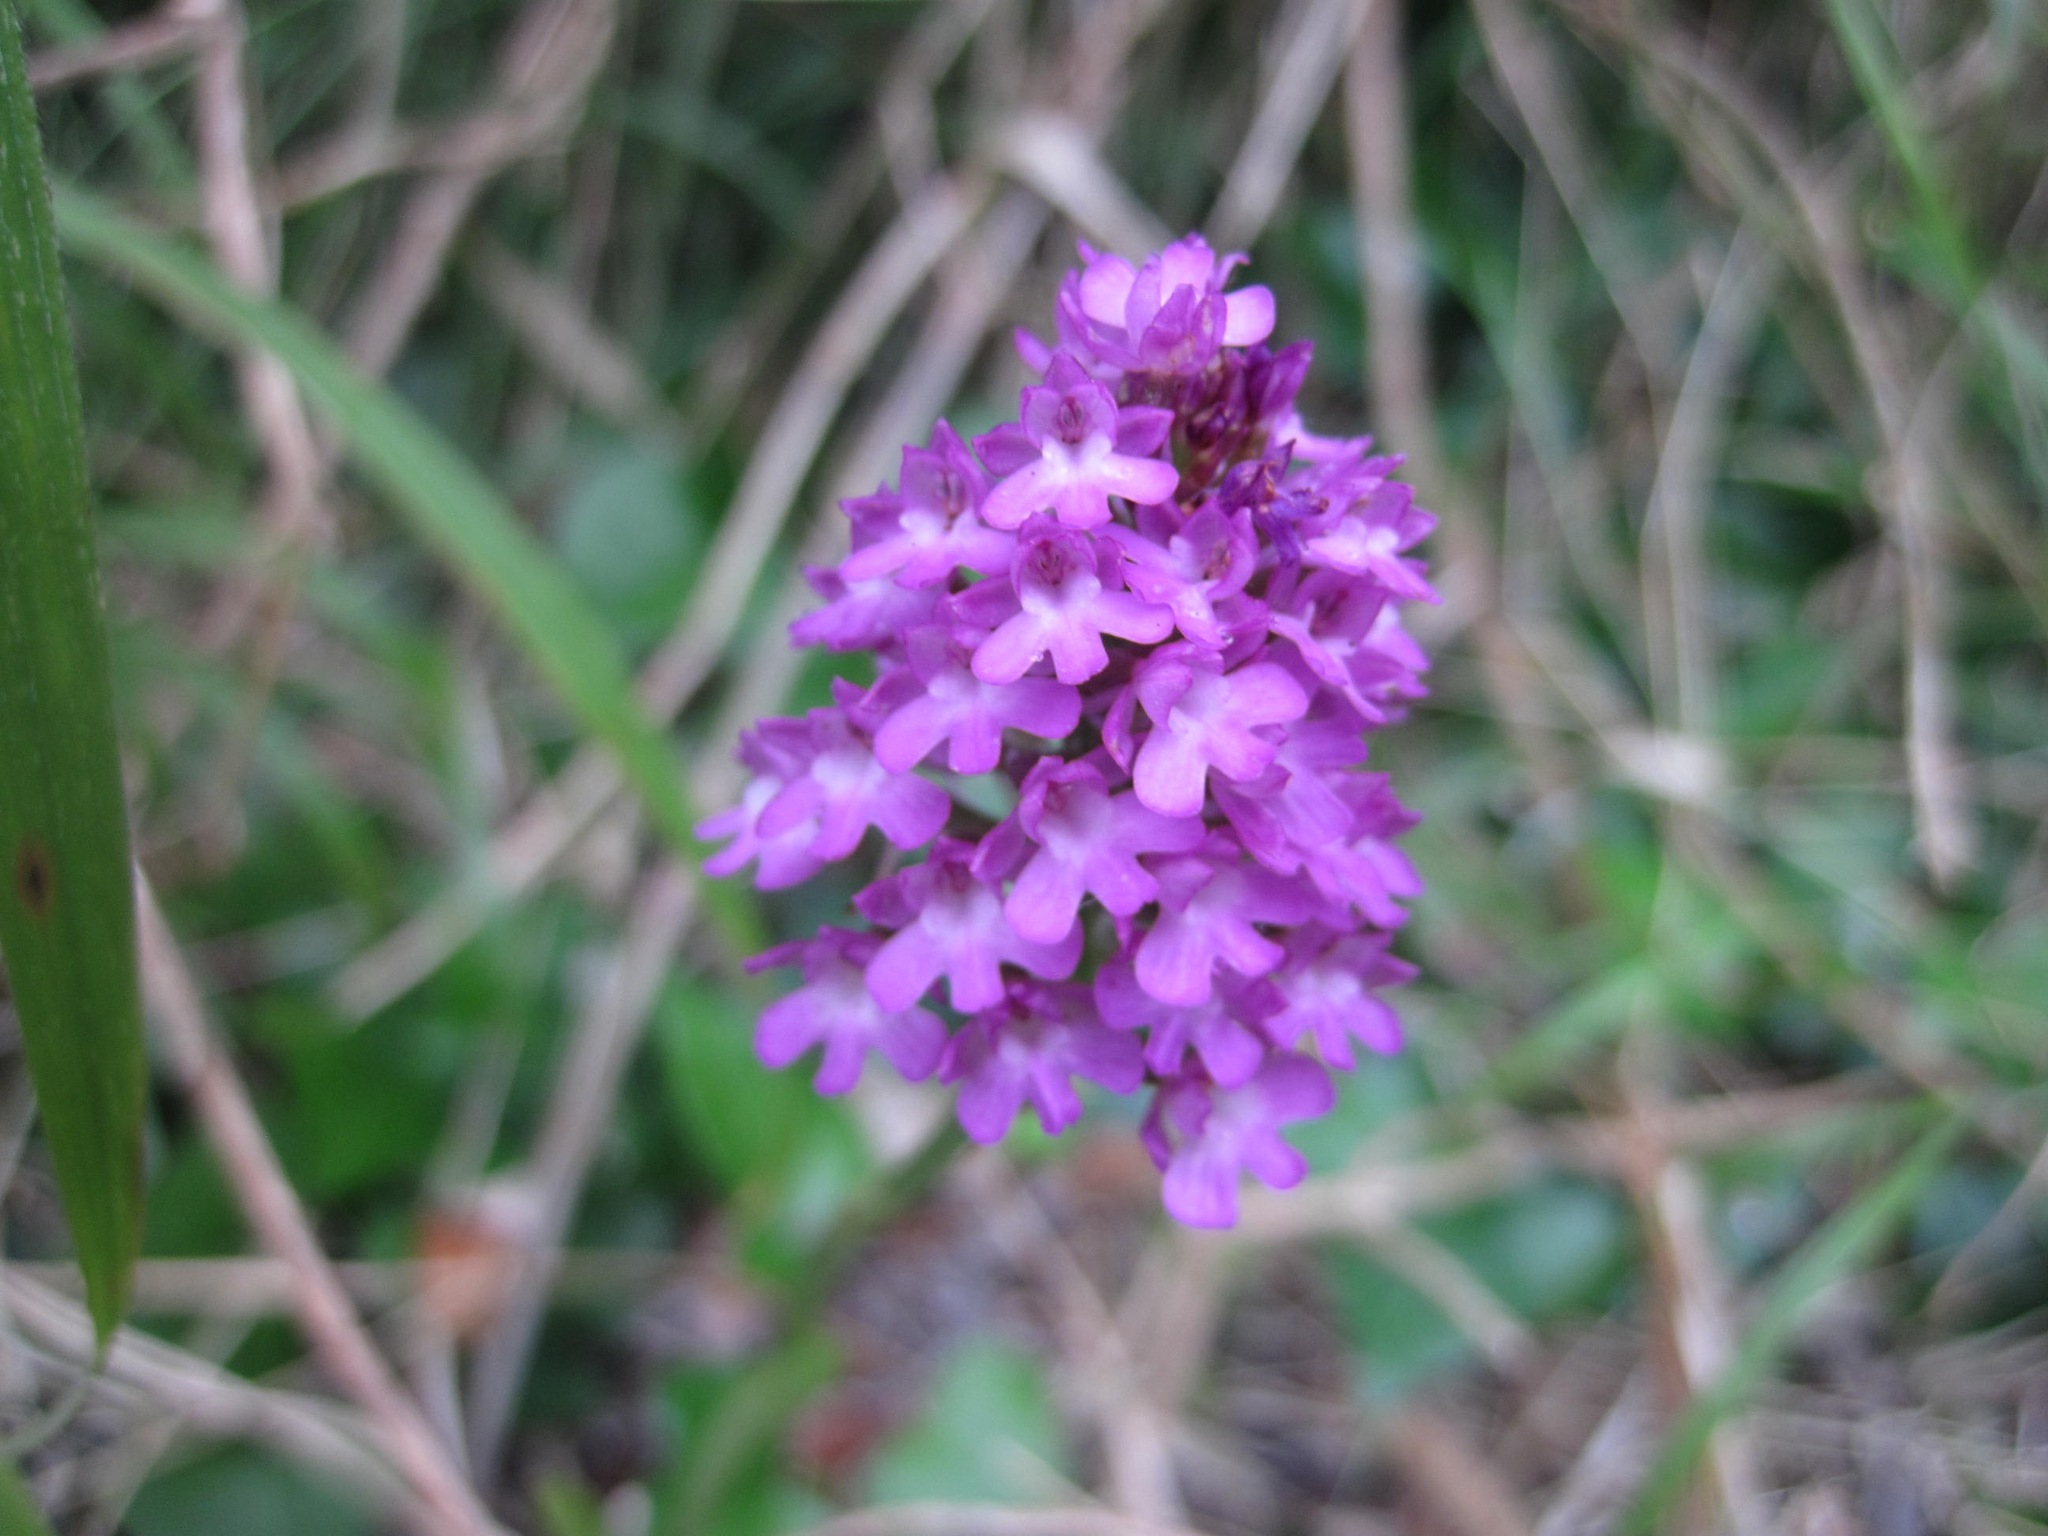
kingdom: Plantae
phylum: Tracheophyta
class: Liliopsida
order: Asparagales
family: Orchidaceae
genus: Anacamptis
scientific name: Anacamptis pyramidalis
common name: Pyramidal orchid
